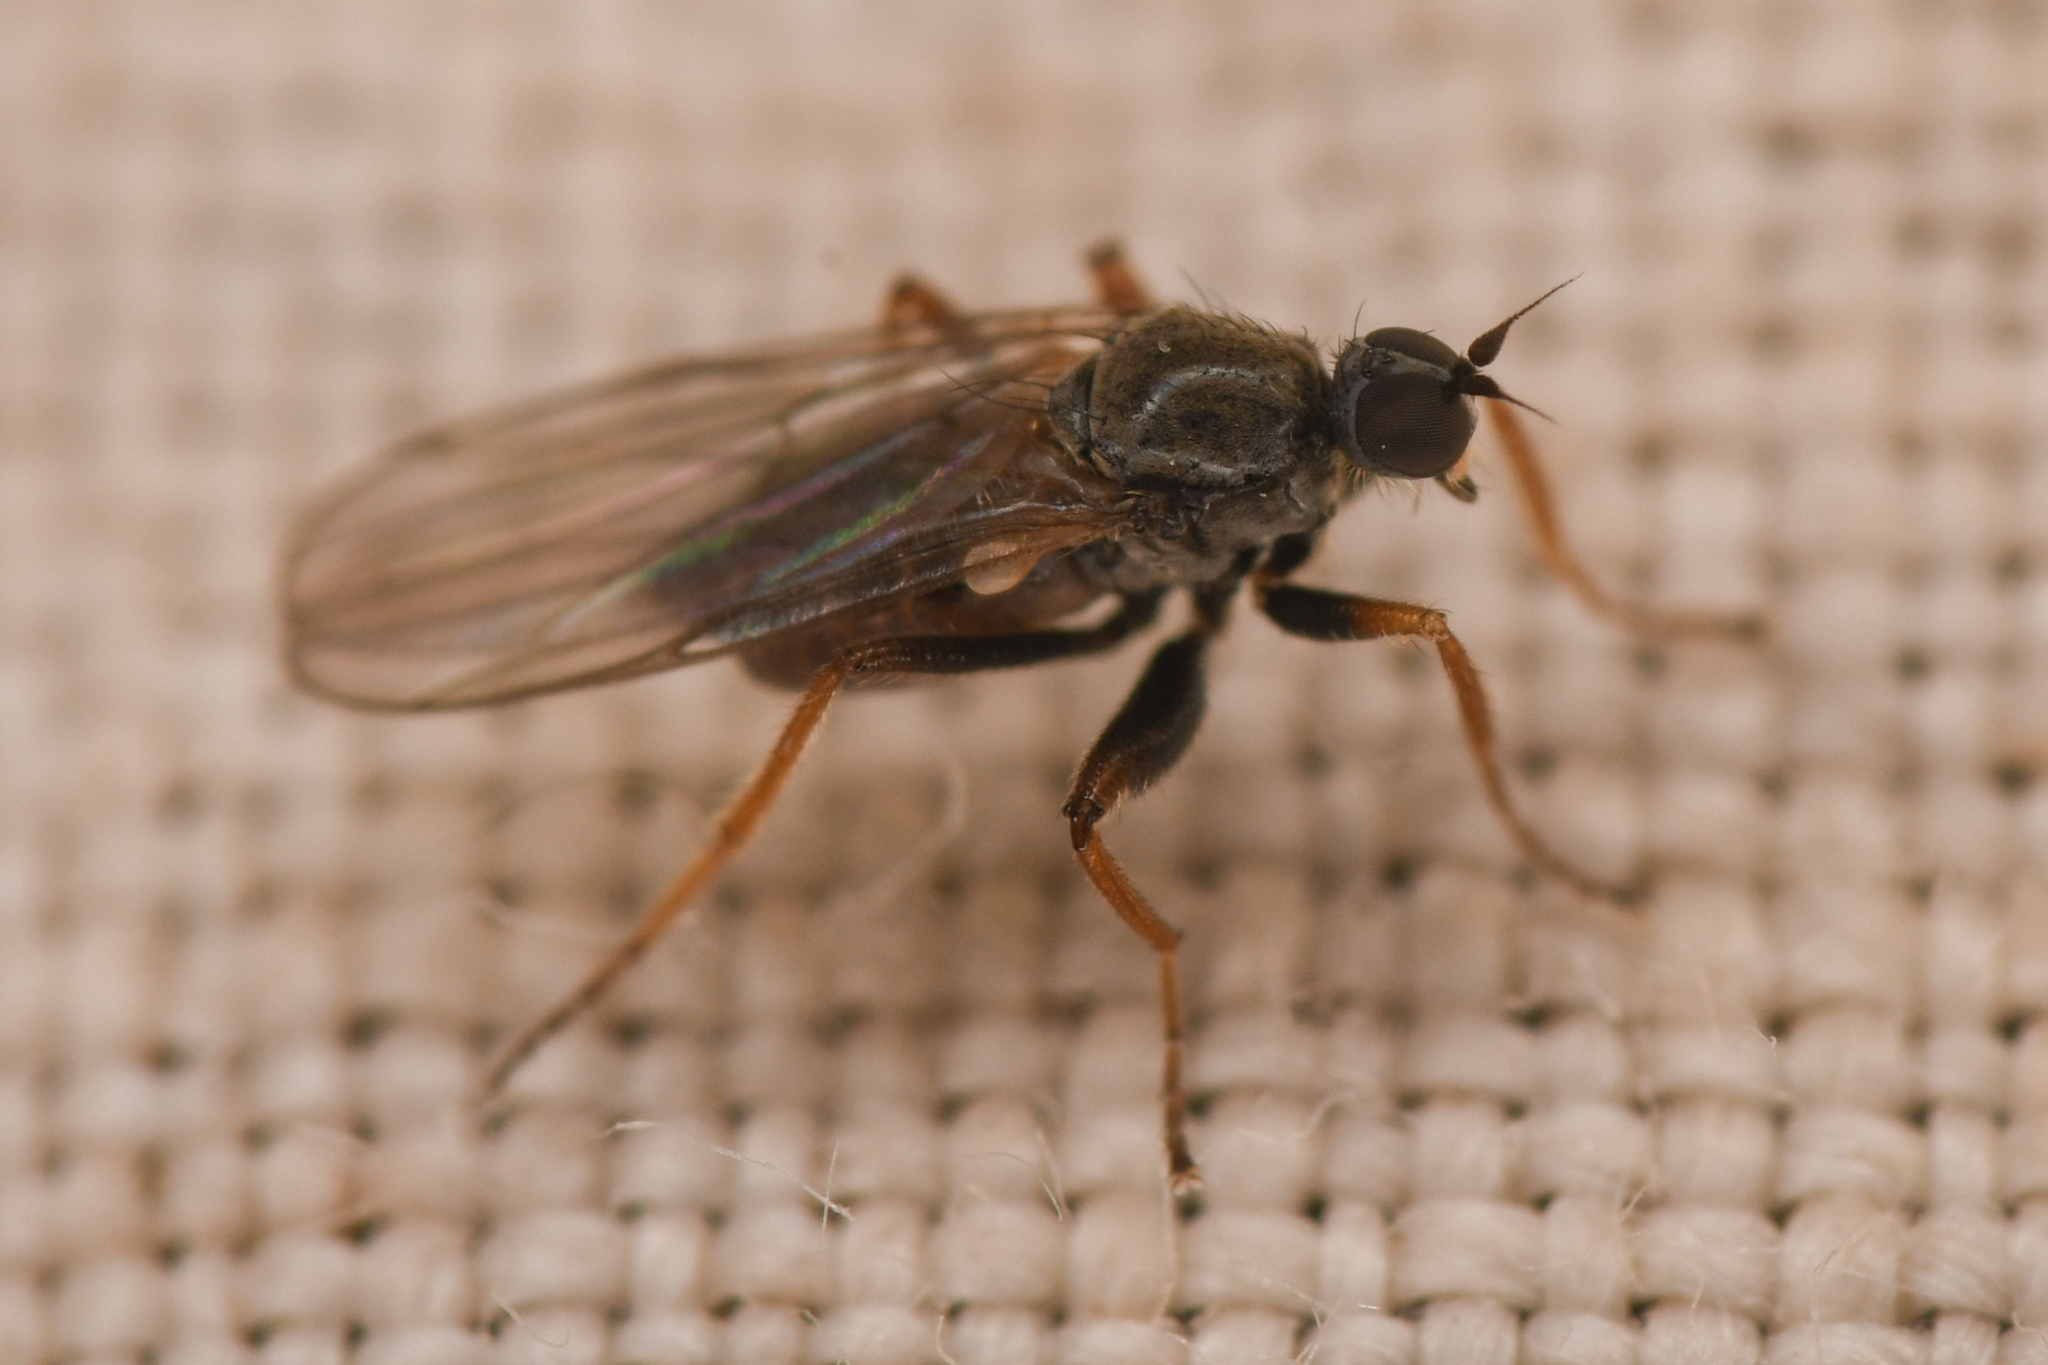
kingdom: Animalia
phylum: Arthropoda
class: Insecta
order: Diptera
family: Hybotidae
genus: Platypalpus
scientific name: Platypalpus pluto
